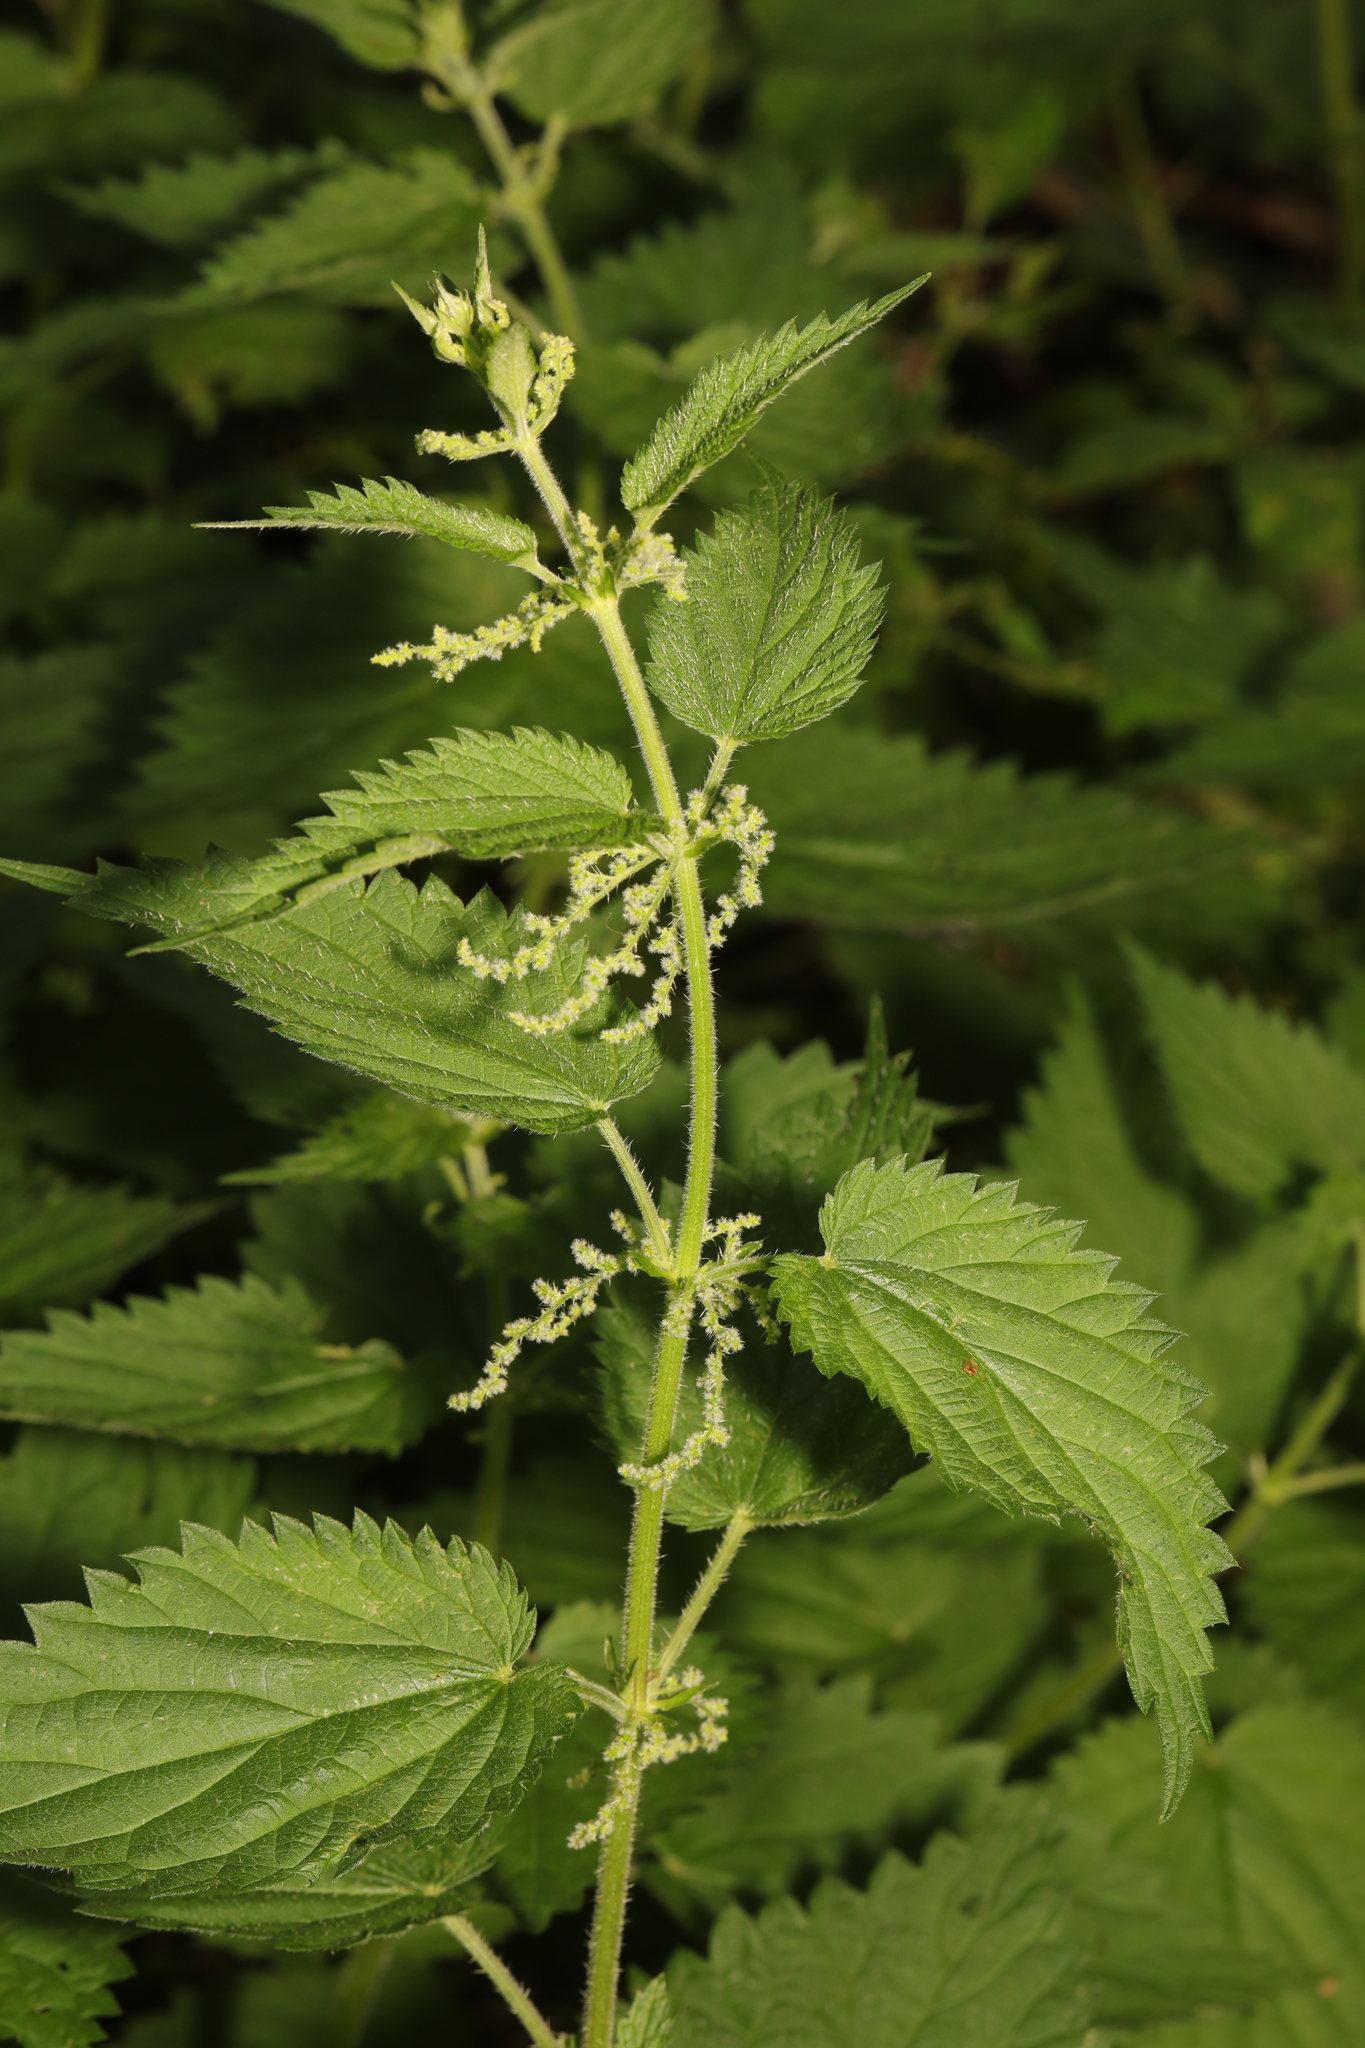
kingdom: Plantae
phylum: Tracheophyta
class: Magnoliopsida
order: Rosales
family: Urticaceae
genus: Urtica
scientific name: Urtica dioica
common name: Common nettle
